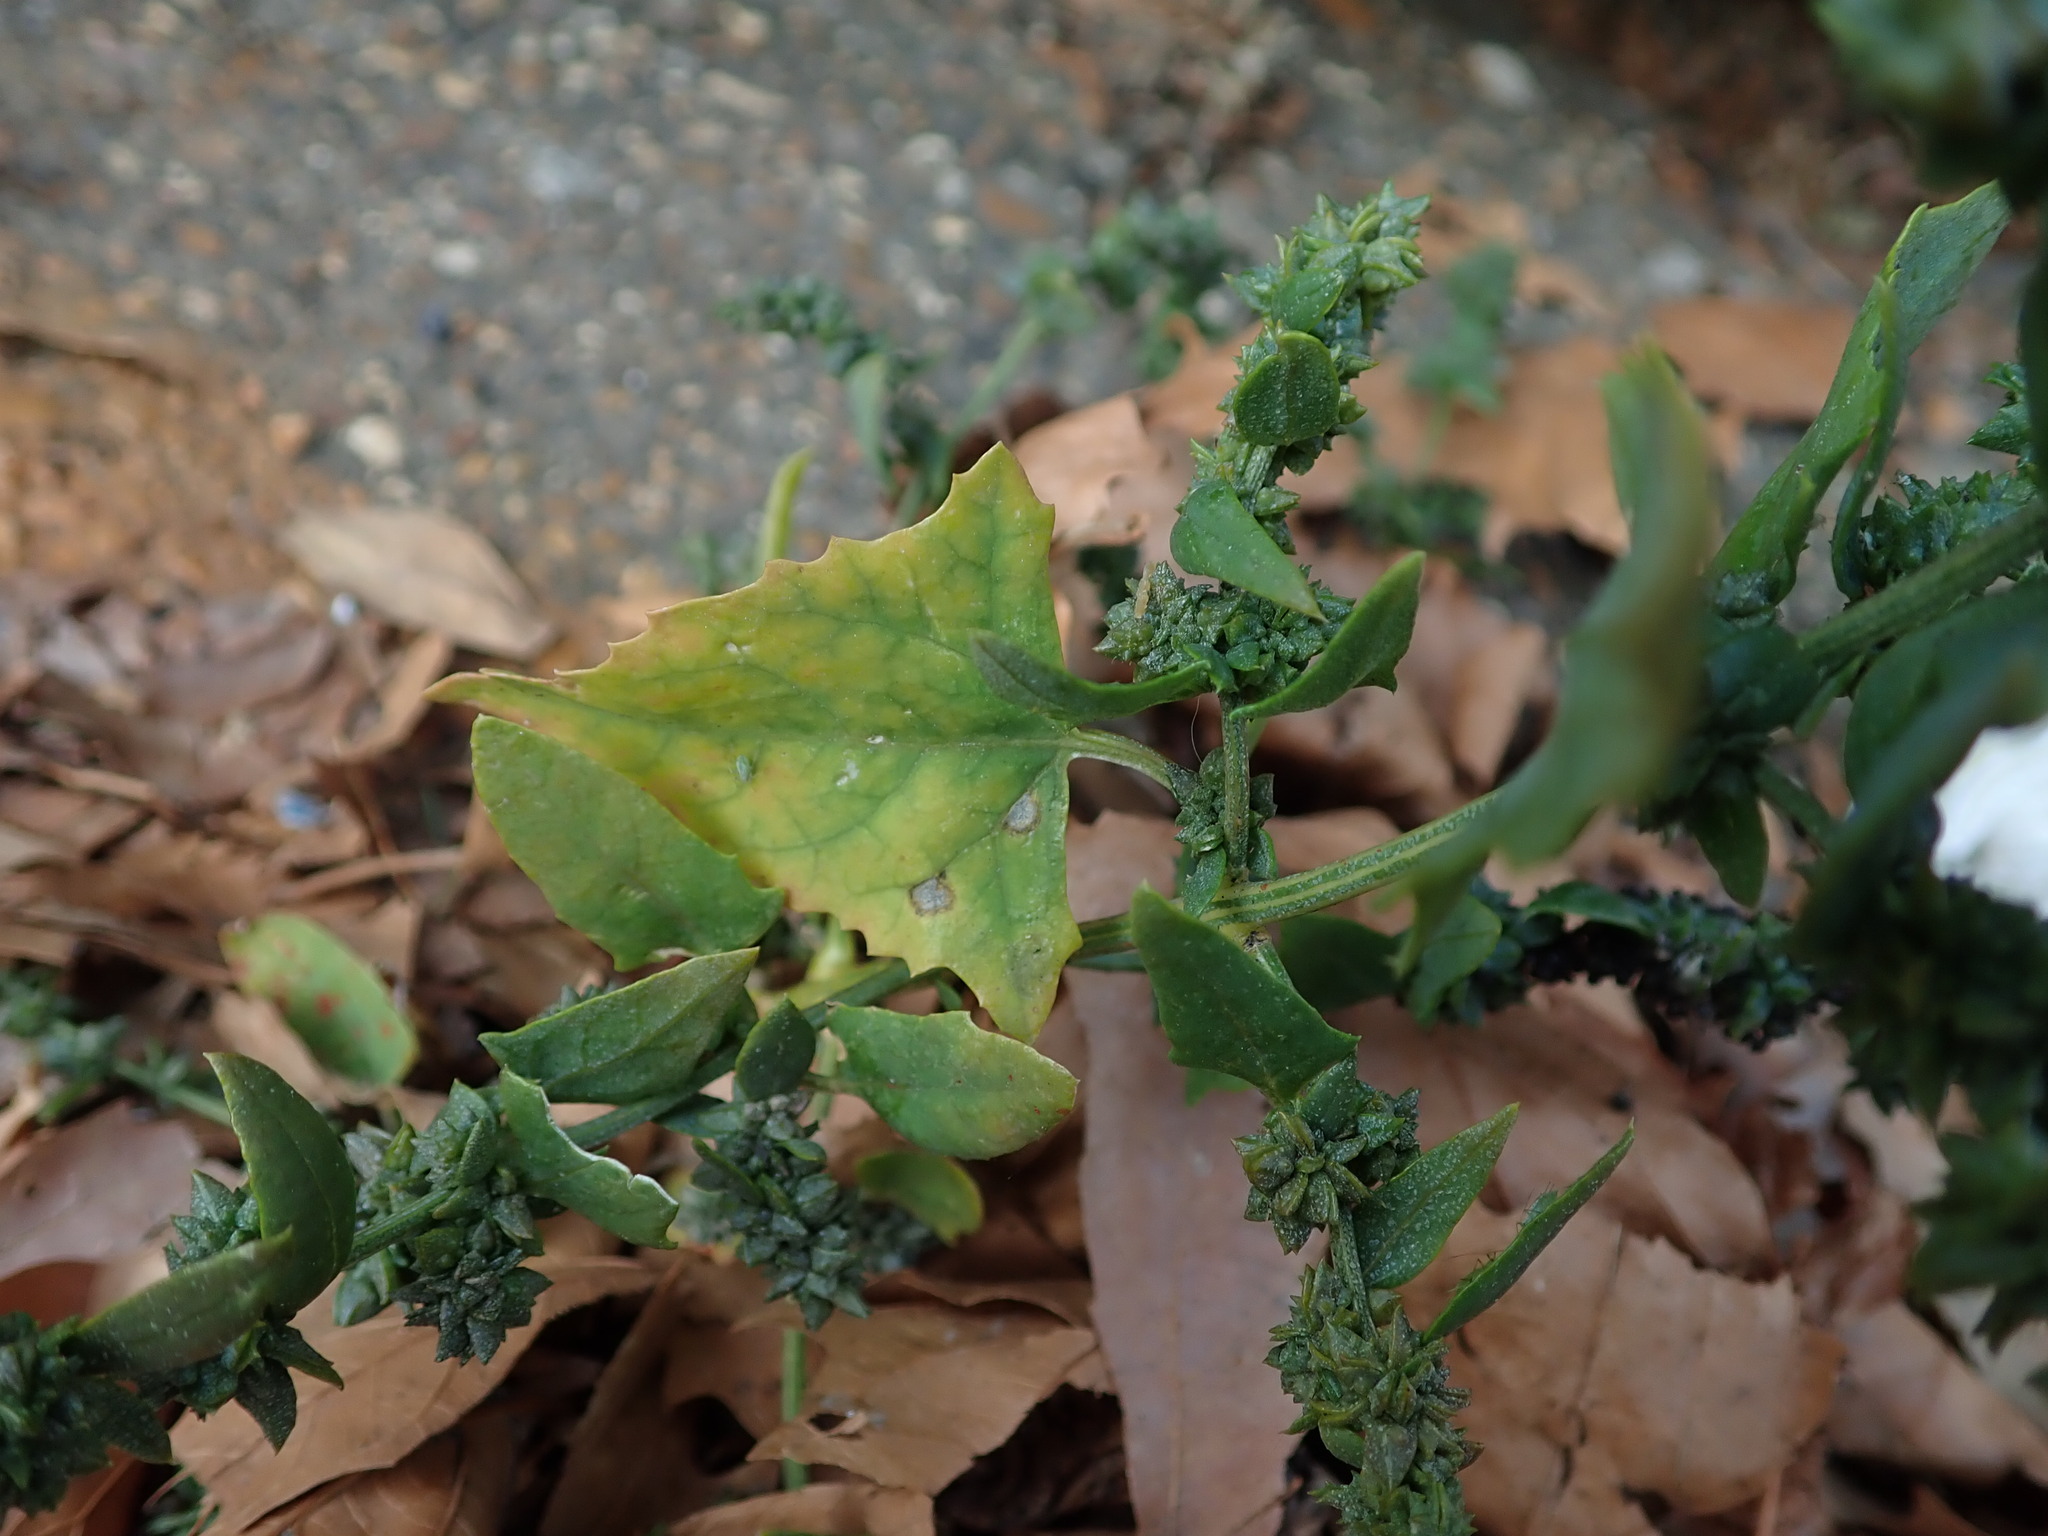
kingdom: Plantae
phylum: Tracheophyta
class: Magnoliopsida
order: Caryophyllales
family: Amaranthaceae
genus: Atriplex
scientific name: Atriplex prostrata
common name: Spear-leaved orache
